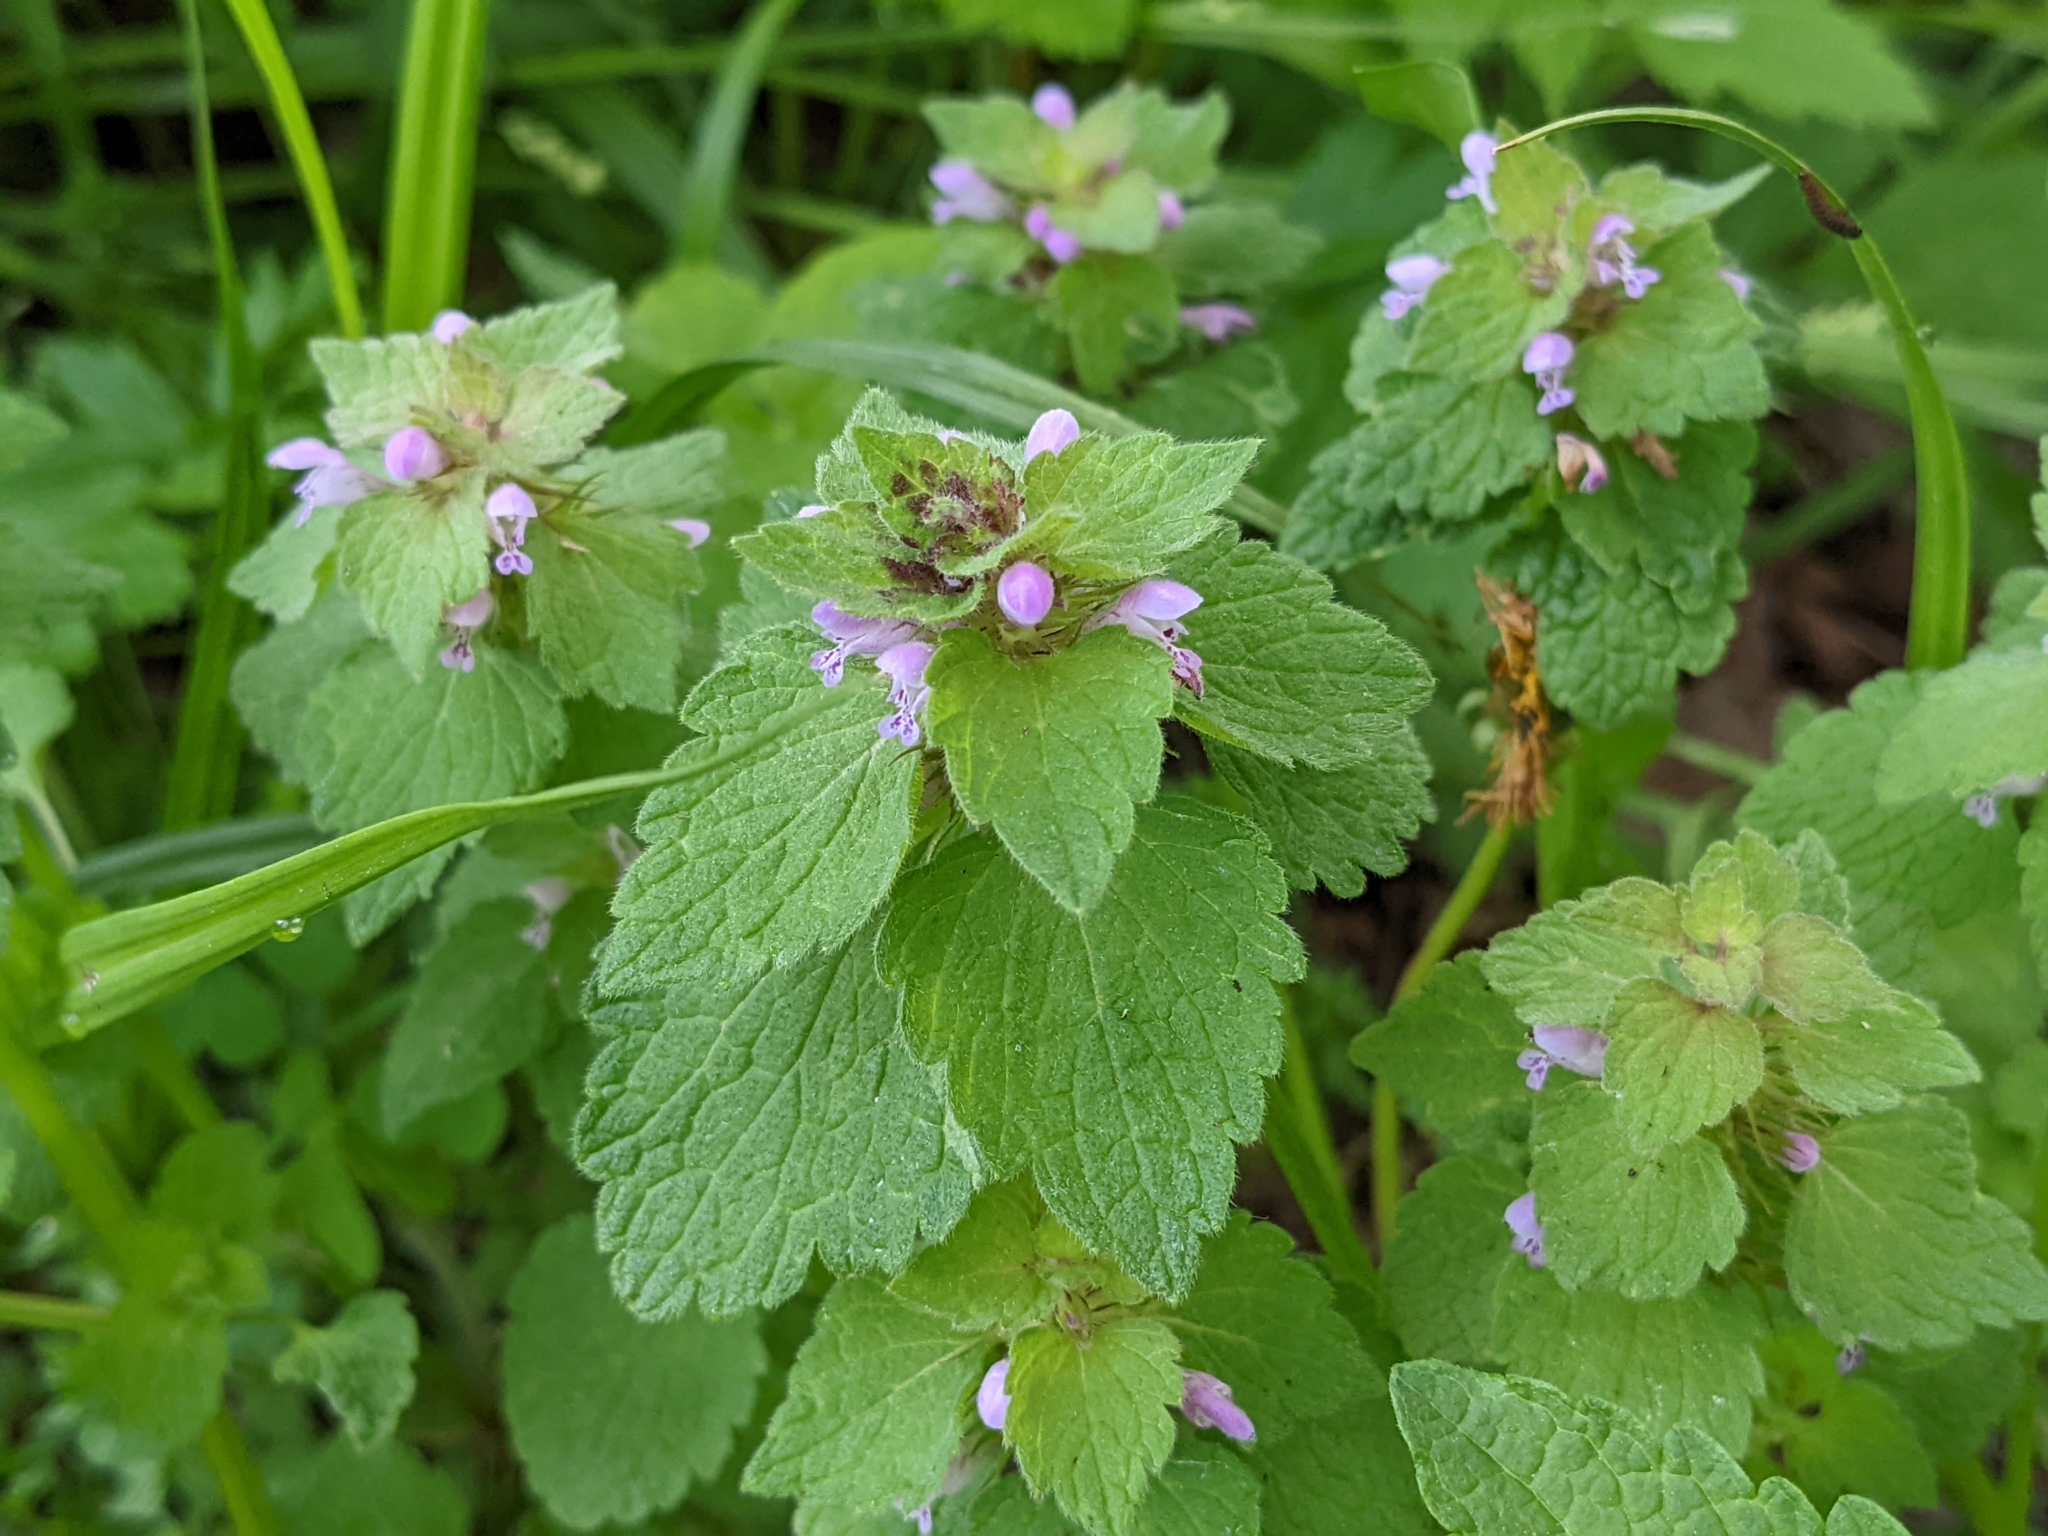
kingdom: Plantae
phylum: Tracheophyta
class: Magnoliopsida
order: Lamiales
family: Lamiaceae
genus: Lamium
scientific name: Lamium purpureum
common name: Red dead-nettle
